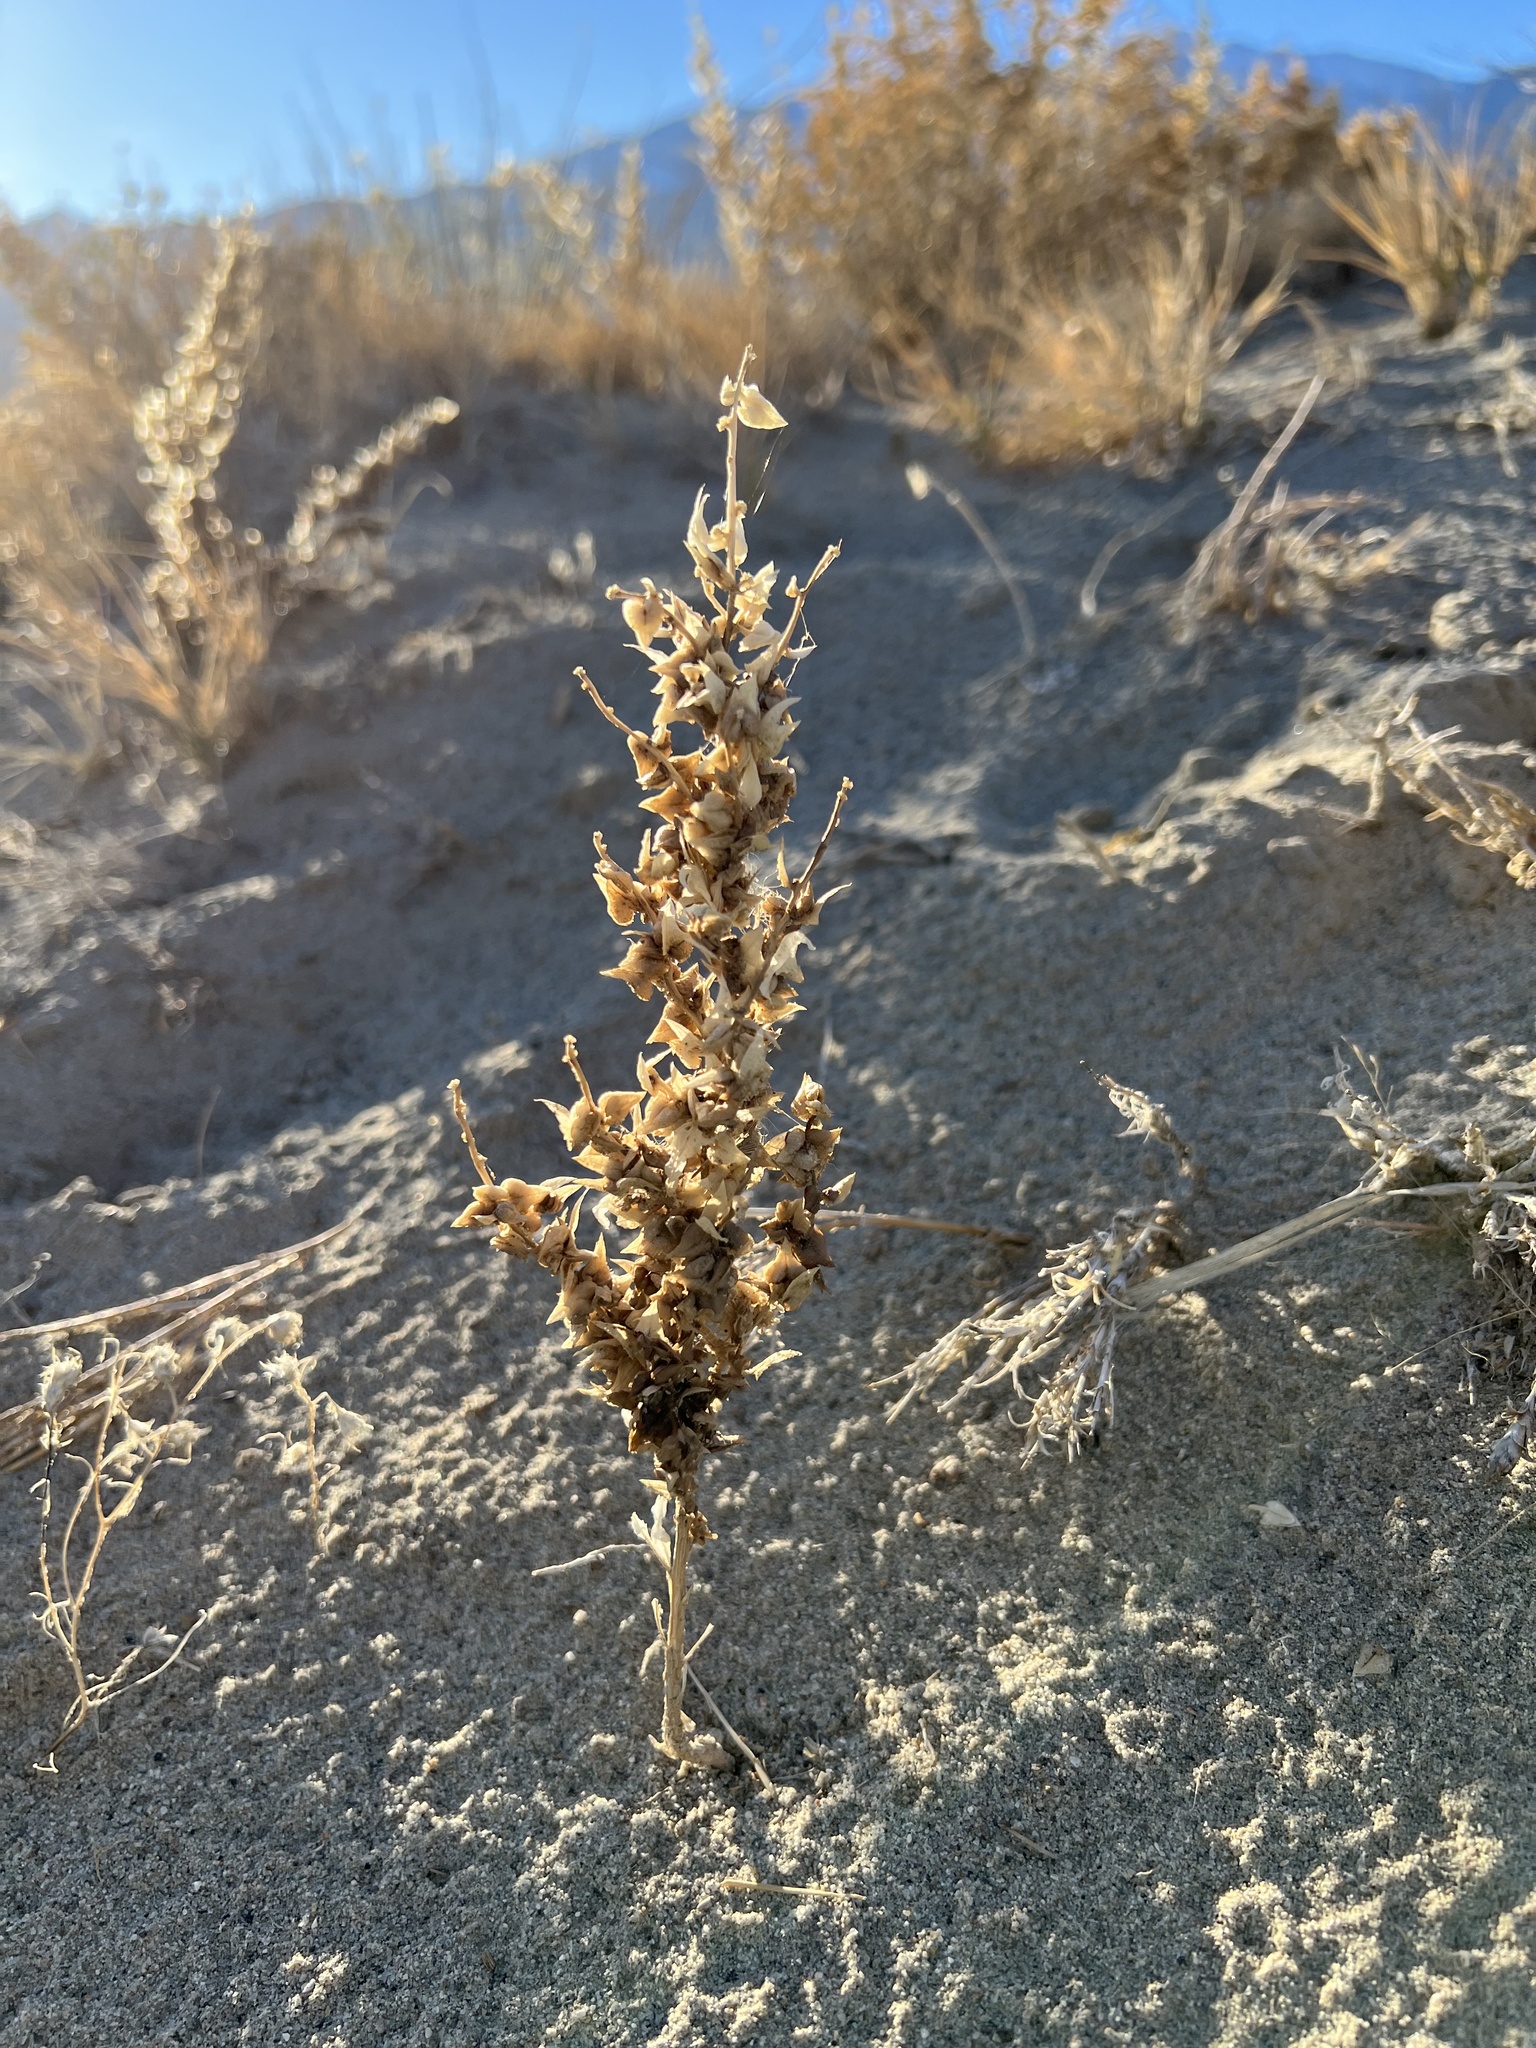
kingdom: Plantae
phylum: Tracheophyta
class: Magnoliopsida
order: Caryophyllales
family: Amaranthaceae
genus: Stutzia
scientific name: Stutzia covillei
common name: Coville's orach
